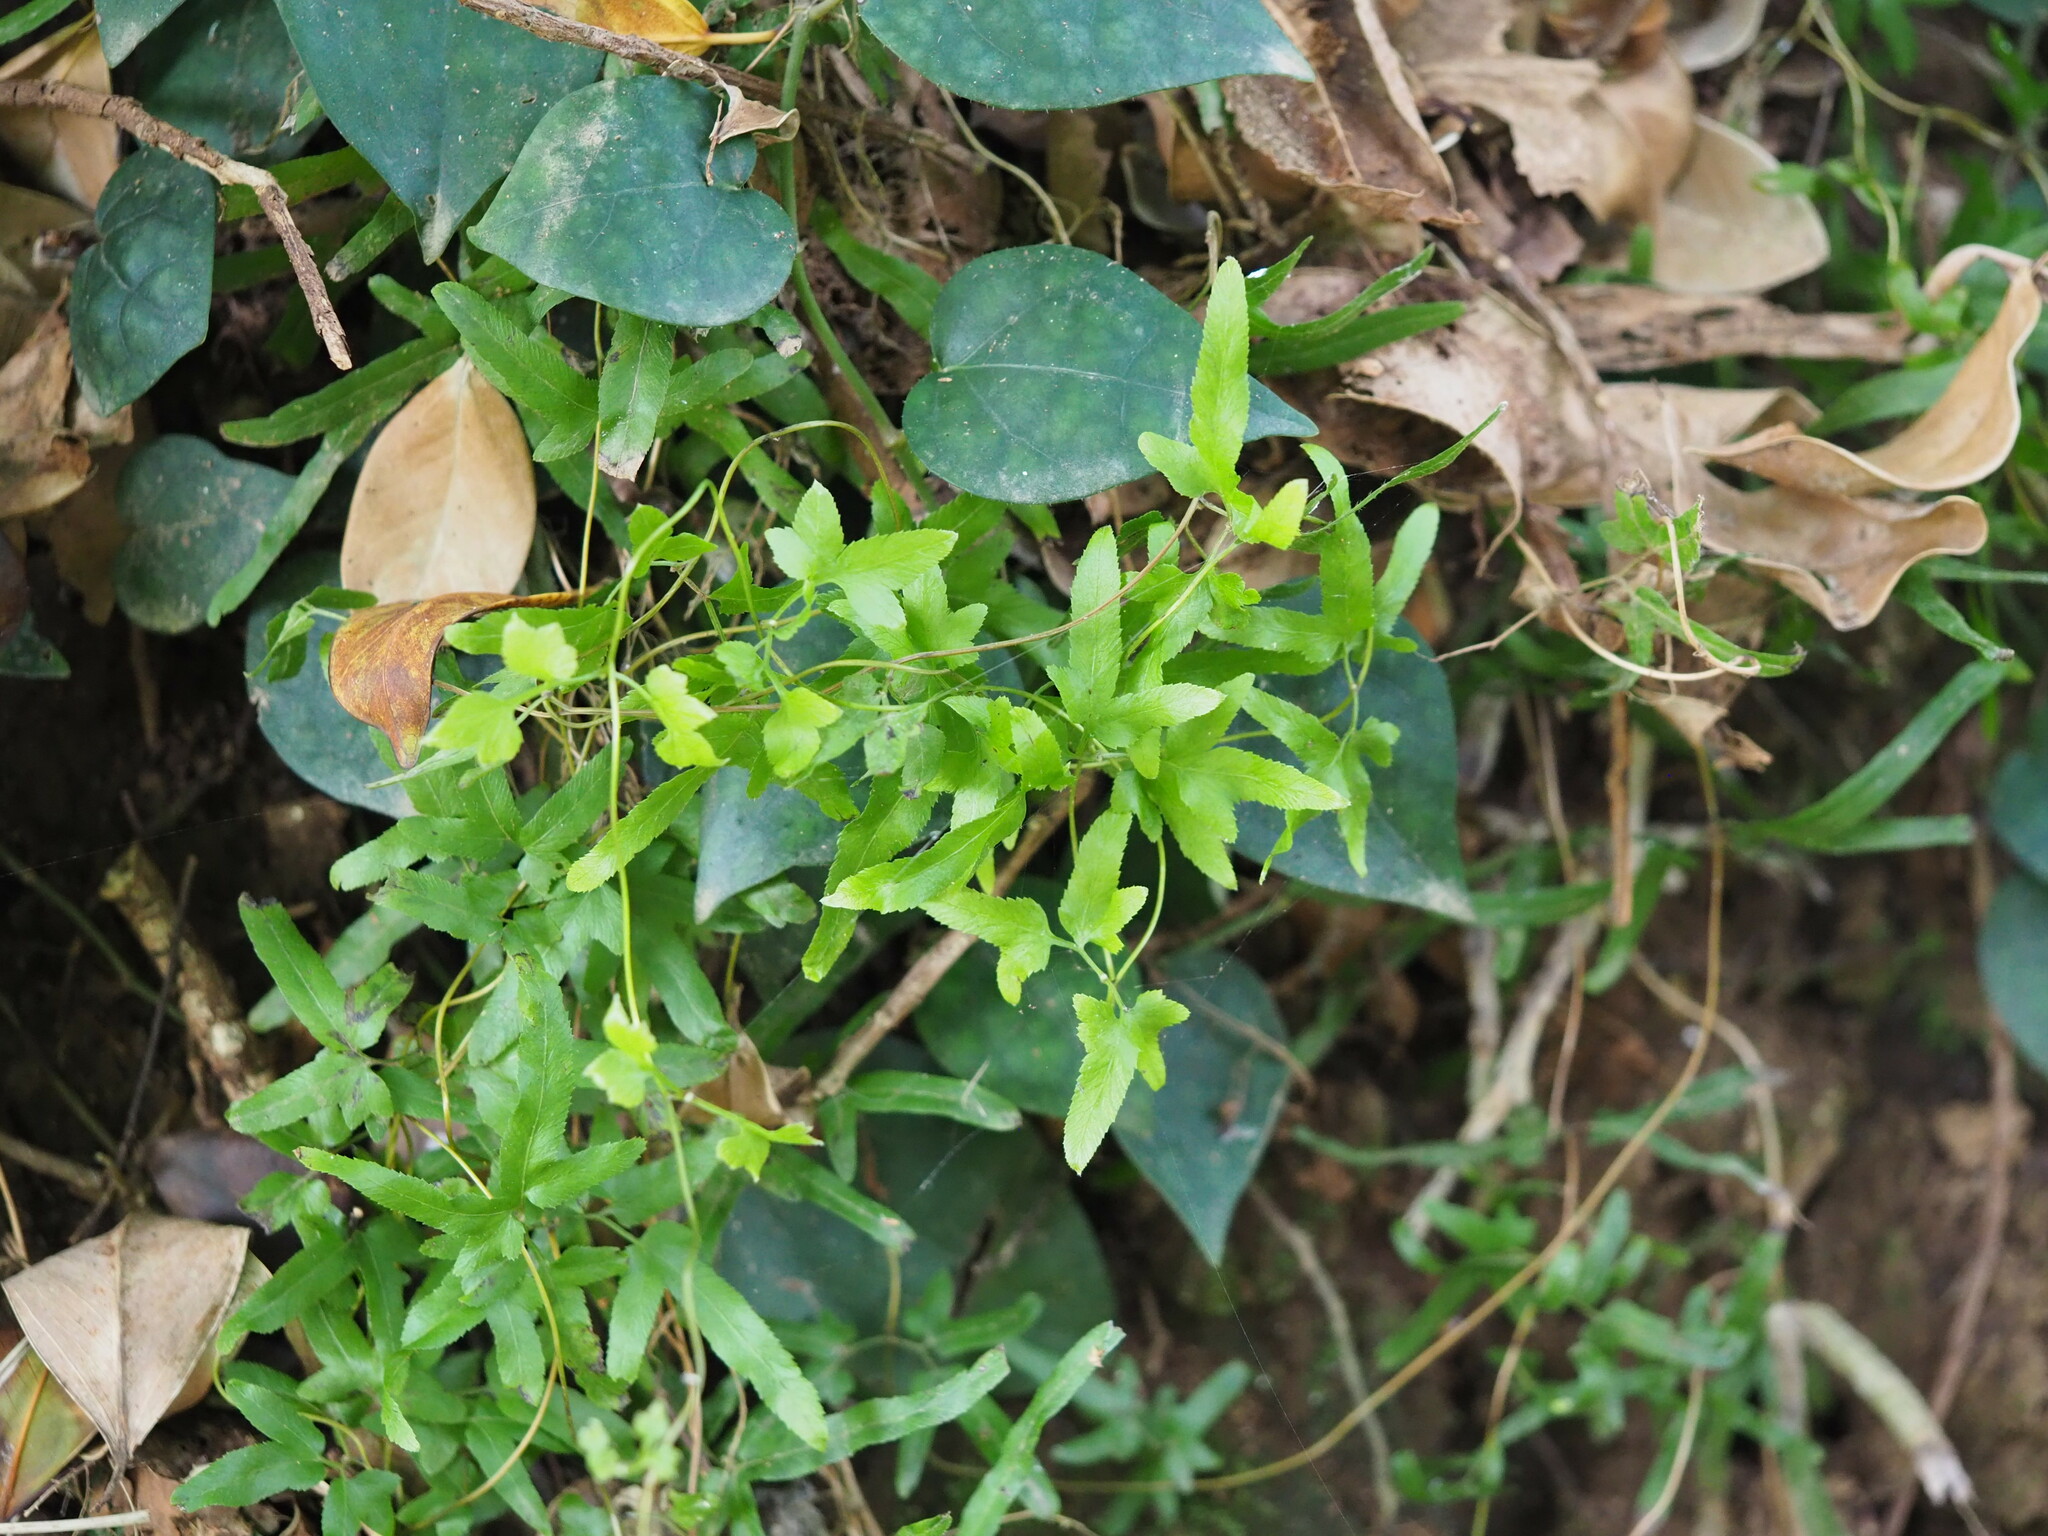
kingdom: Plantae
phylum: Tracheophyta
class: Polypodiopsida
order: Schizaeales
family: Lygodiaceae
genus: Lygodium
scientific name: Lygodium japonicum
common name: Japanese climbing fern
